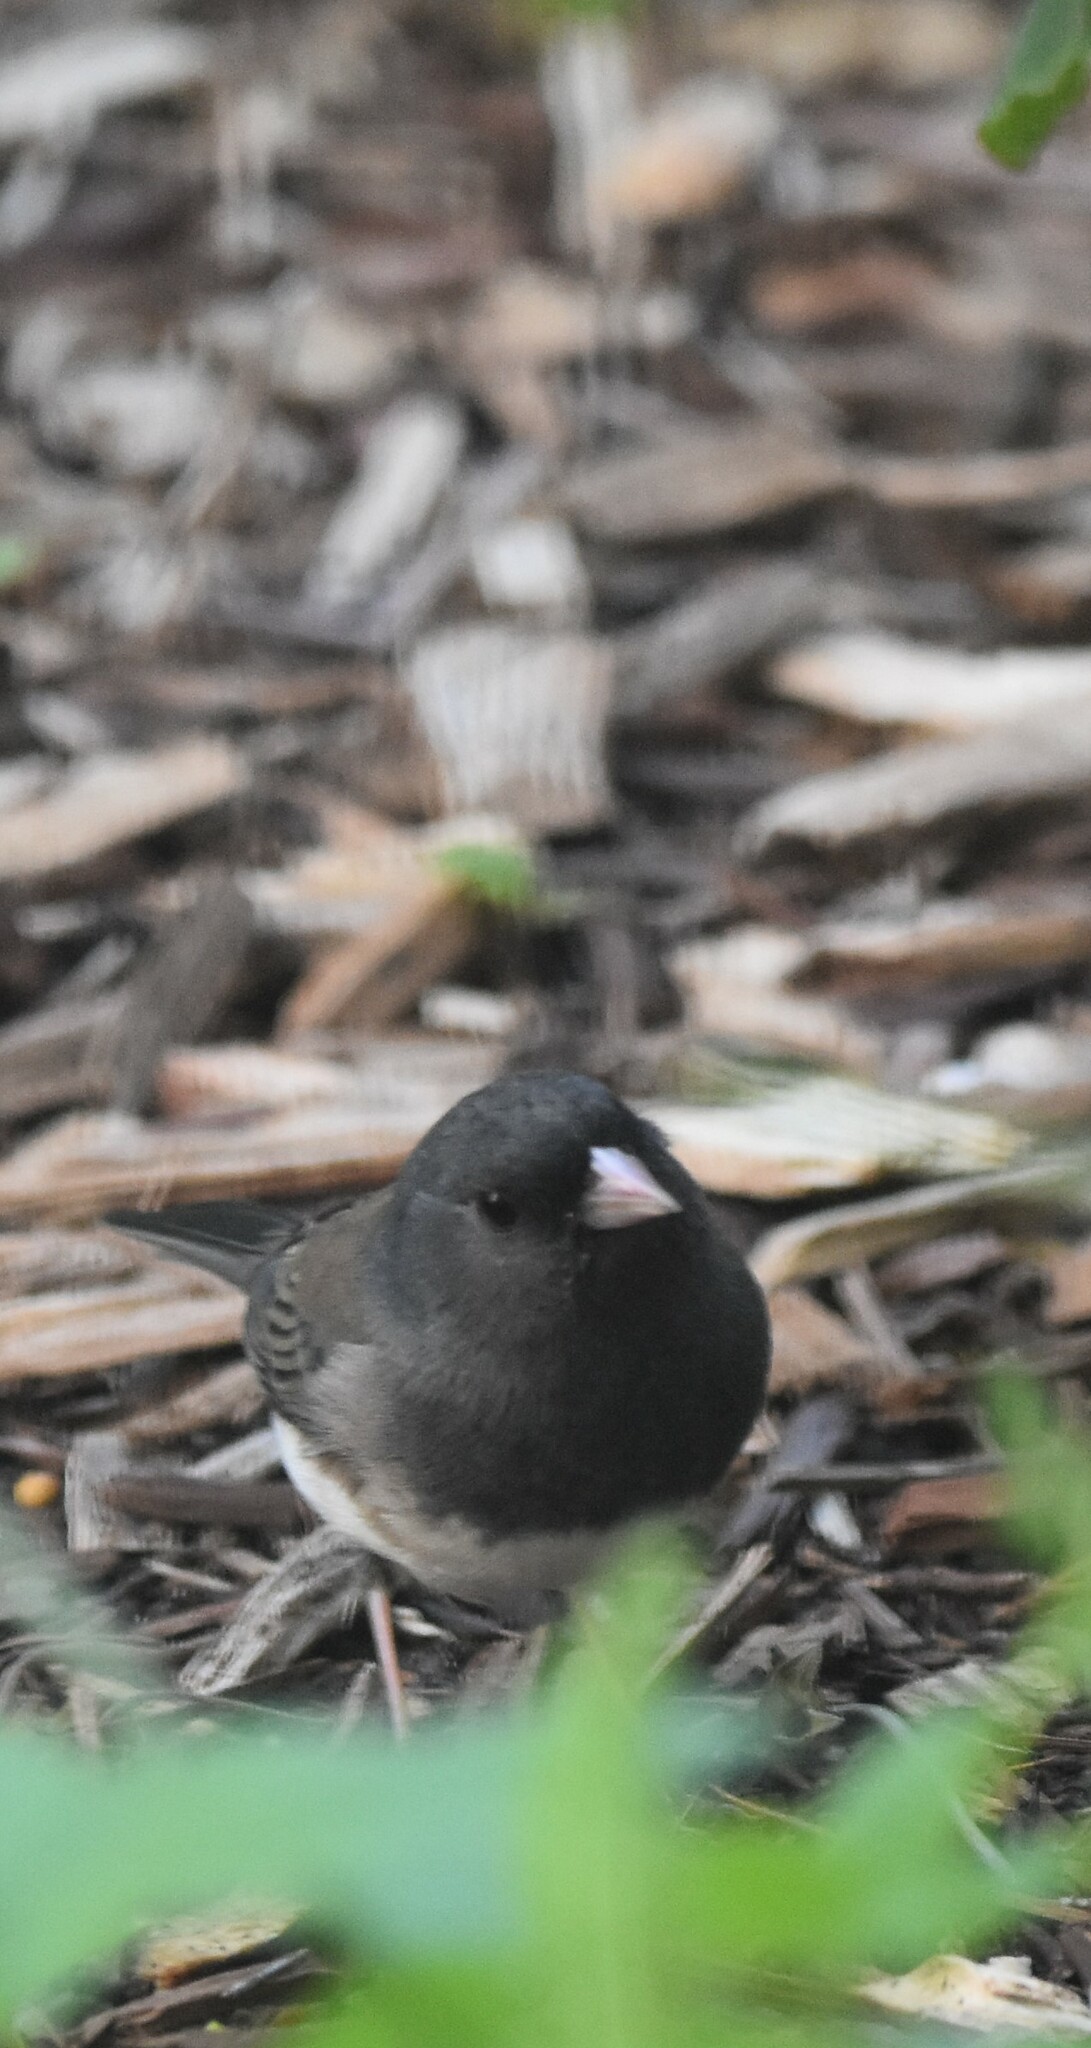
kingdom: Animalia
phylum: Chordata
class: Aves
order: Passeriformes
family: Passerellidae
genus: Junco
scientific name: Junco hyemalis
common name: Dark-eyed junco
